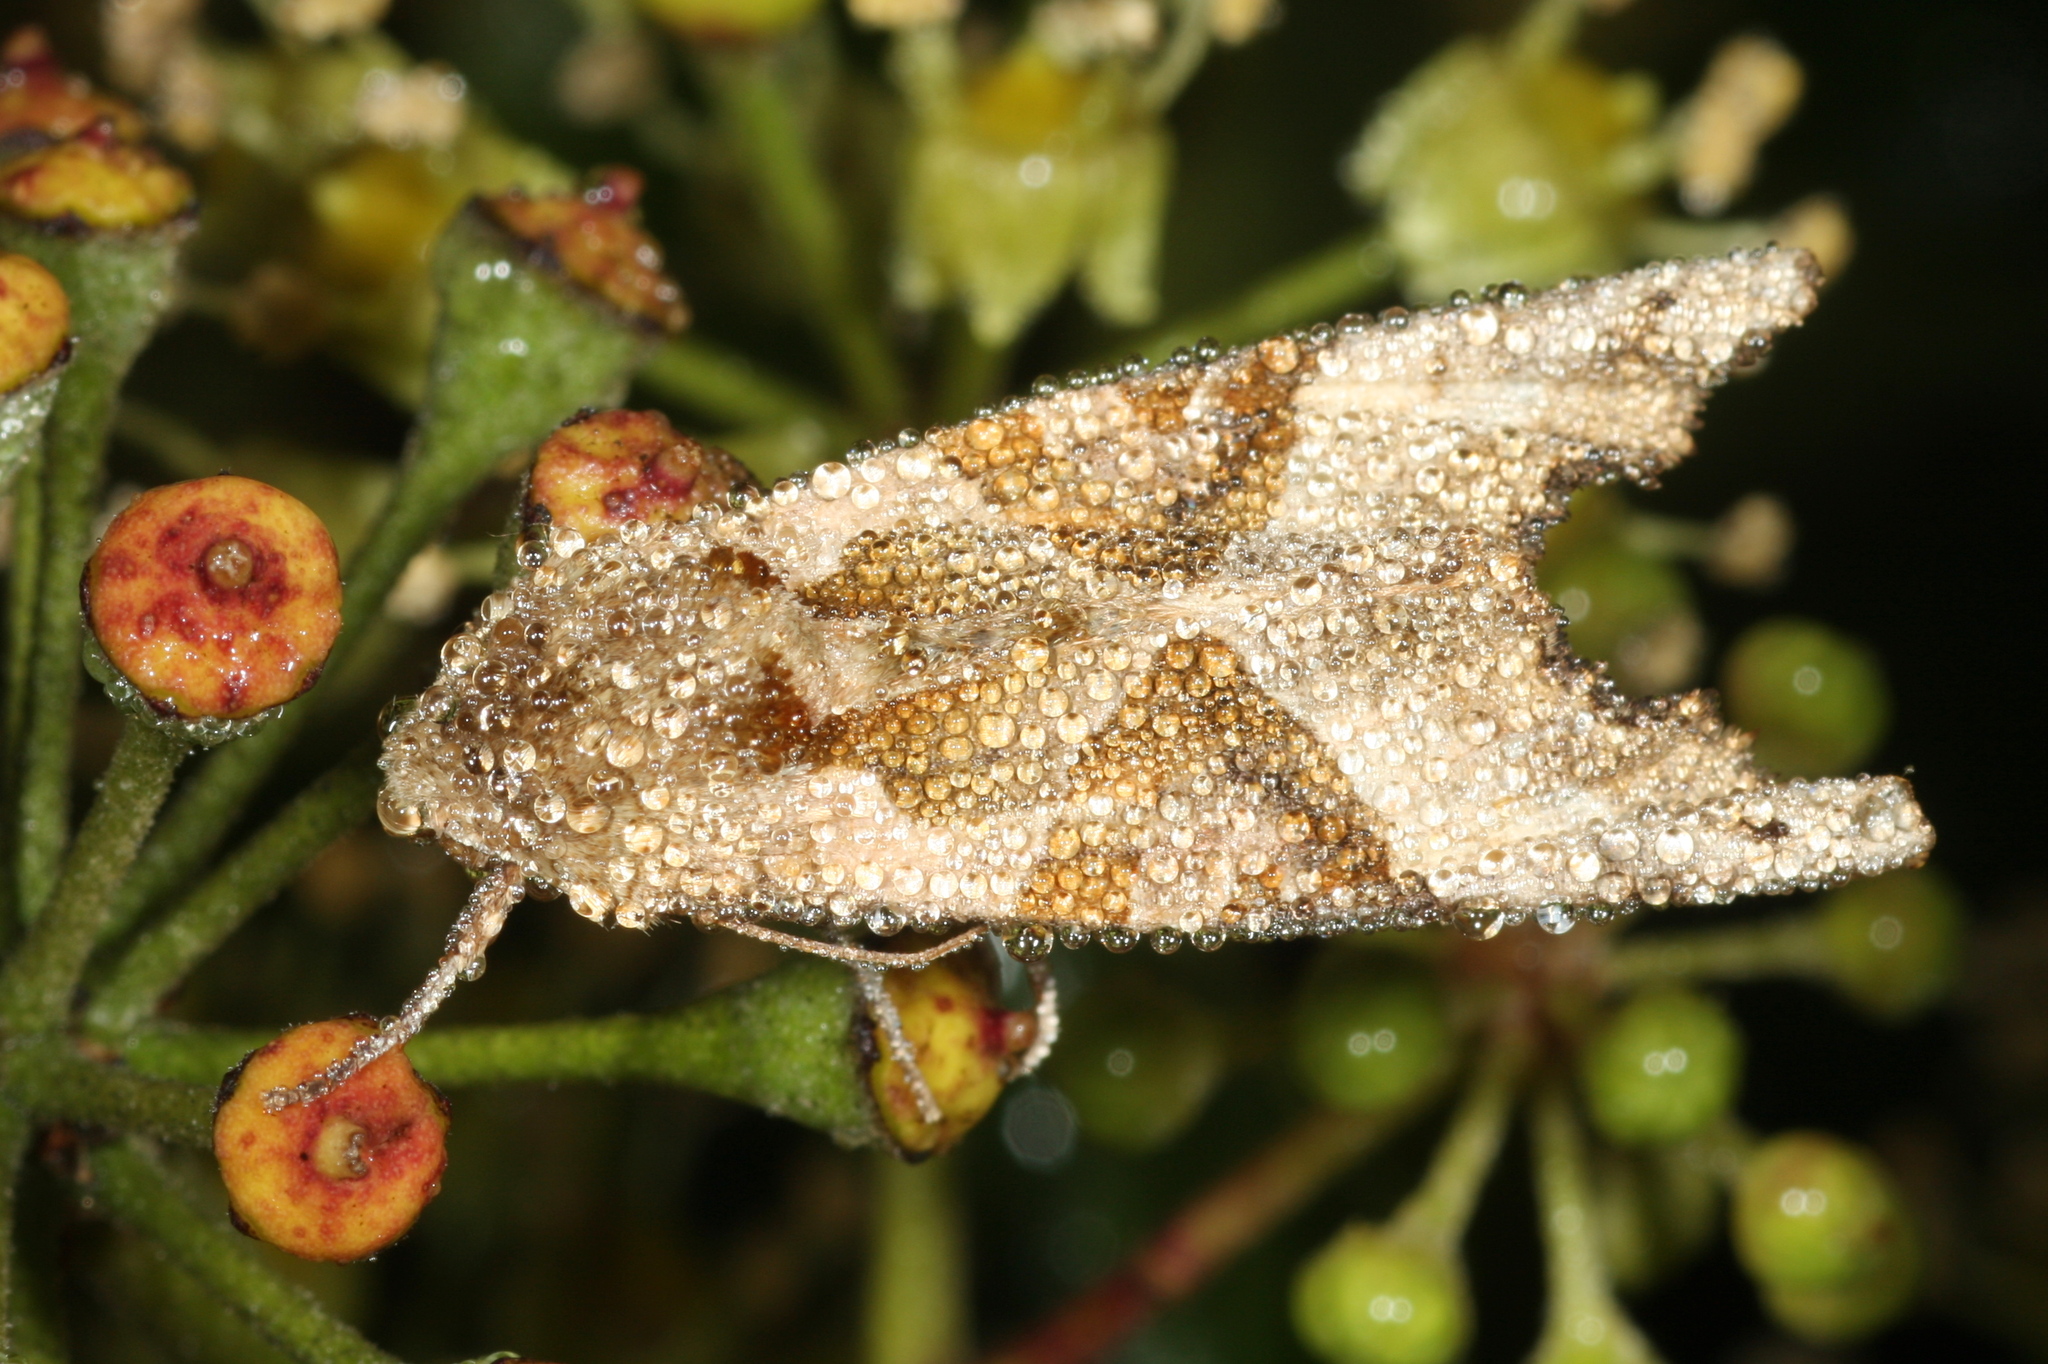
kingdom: Animalia
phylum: Arthropoda
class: Insecta
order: Lepidoptera
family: Noctuidae
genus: Phlogophora
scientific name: Phlogophora meticulosa
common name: Angle shades
